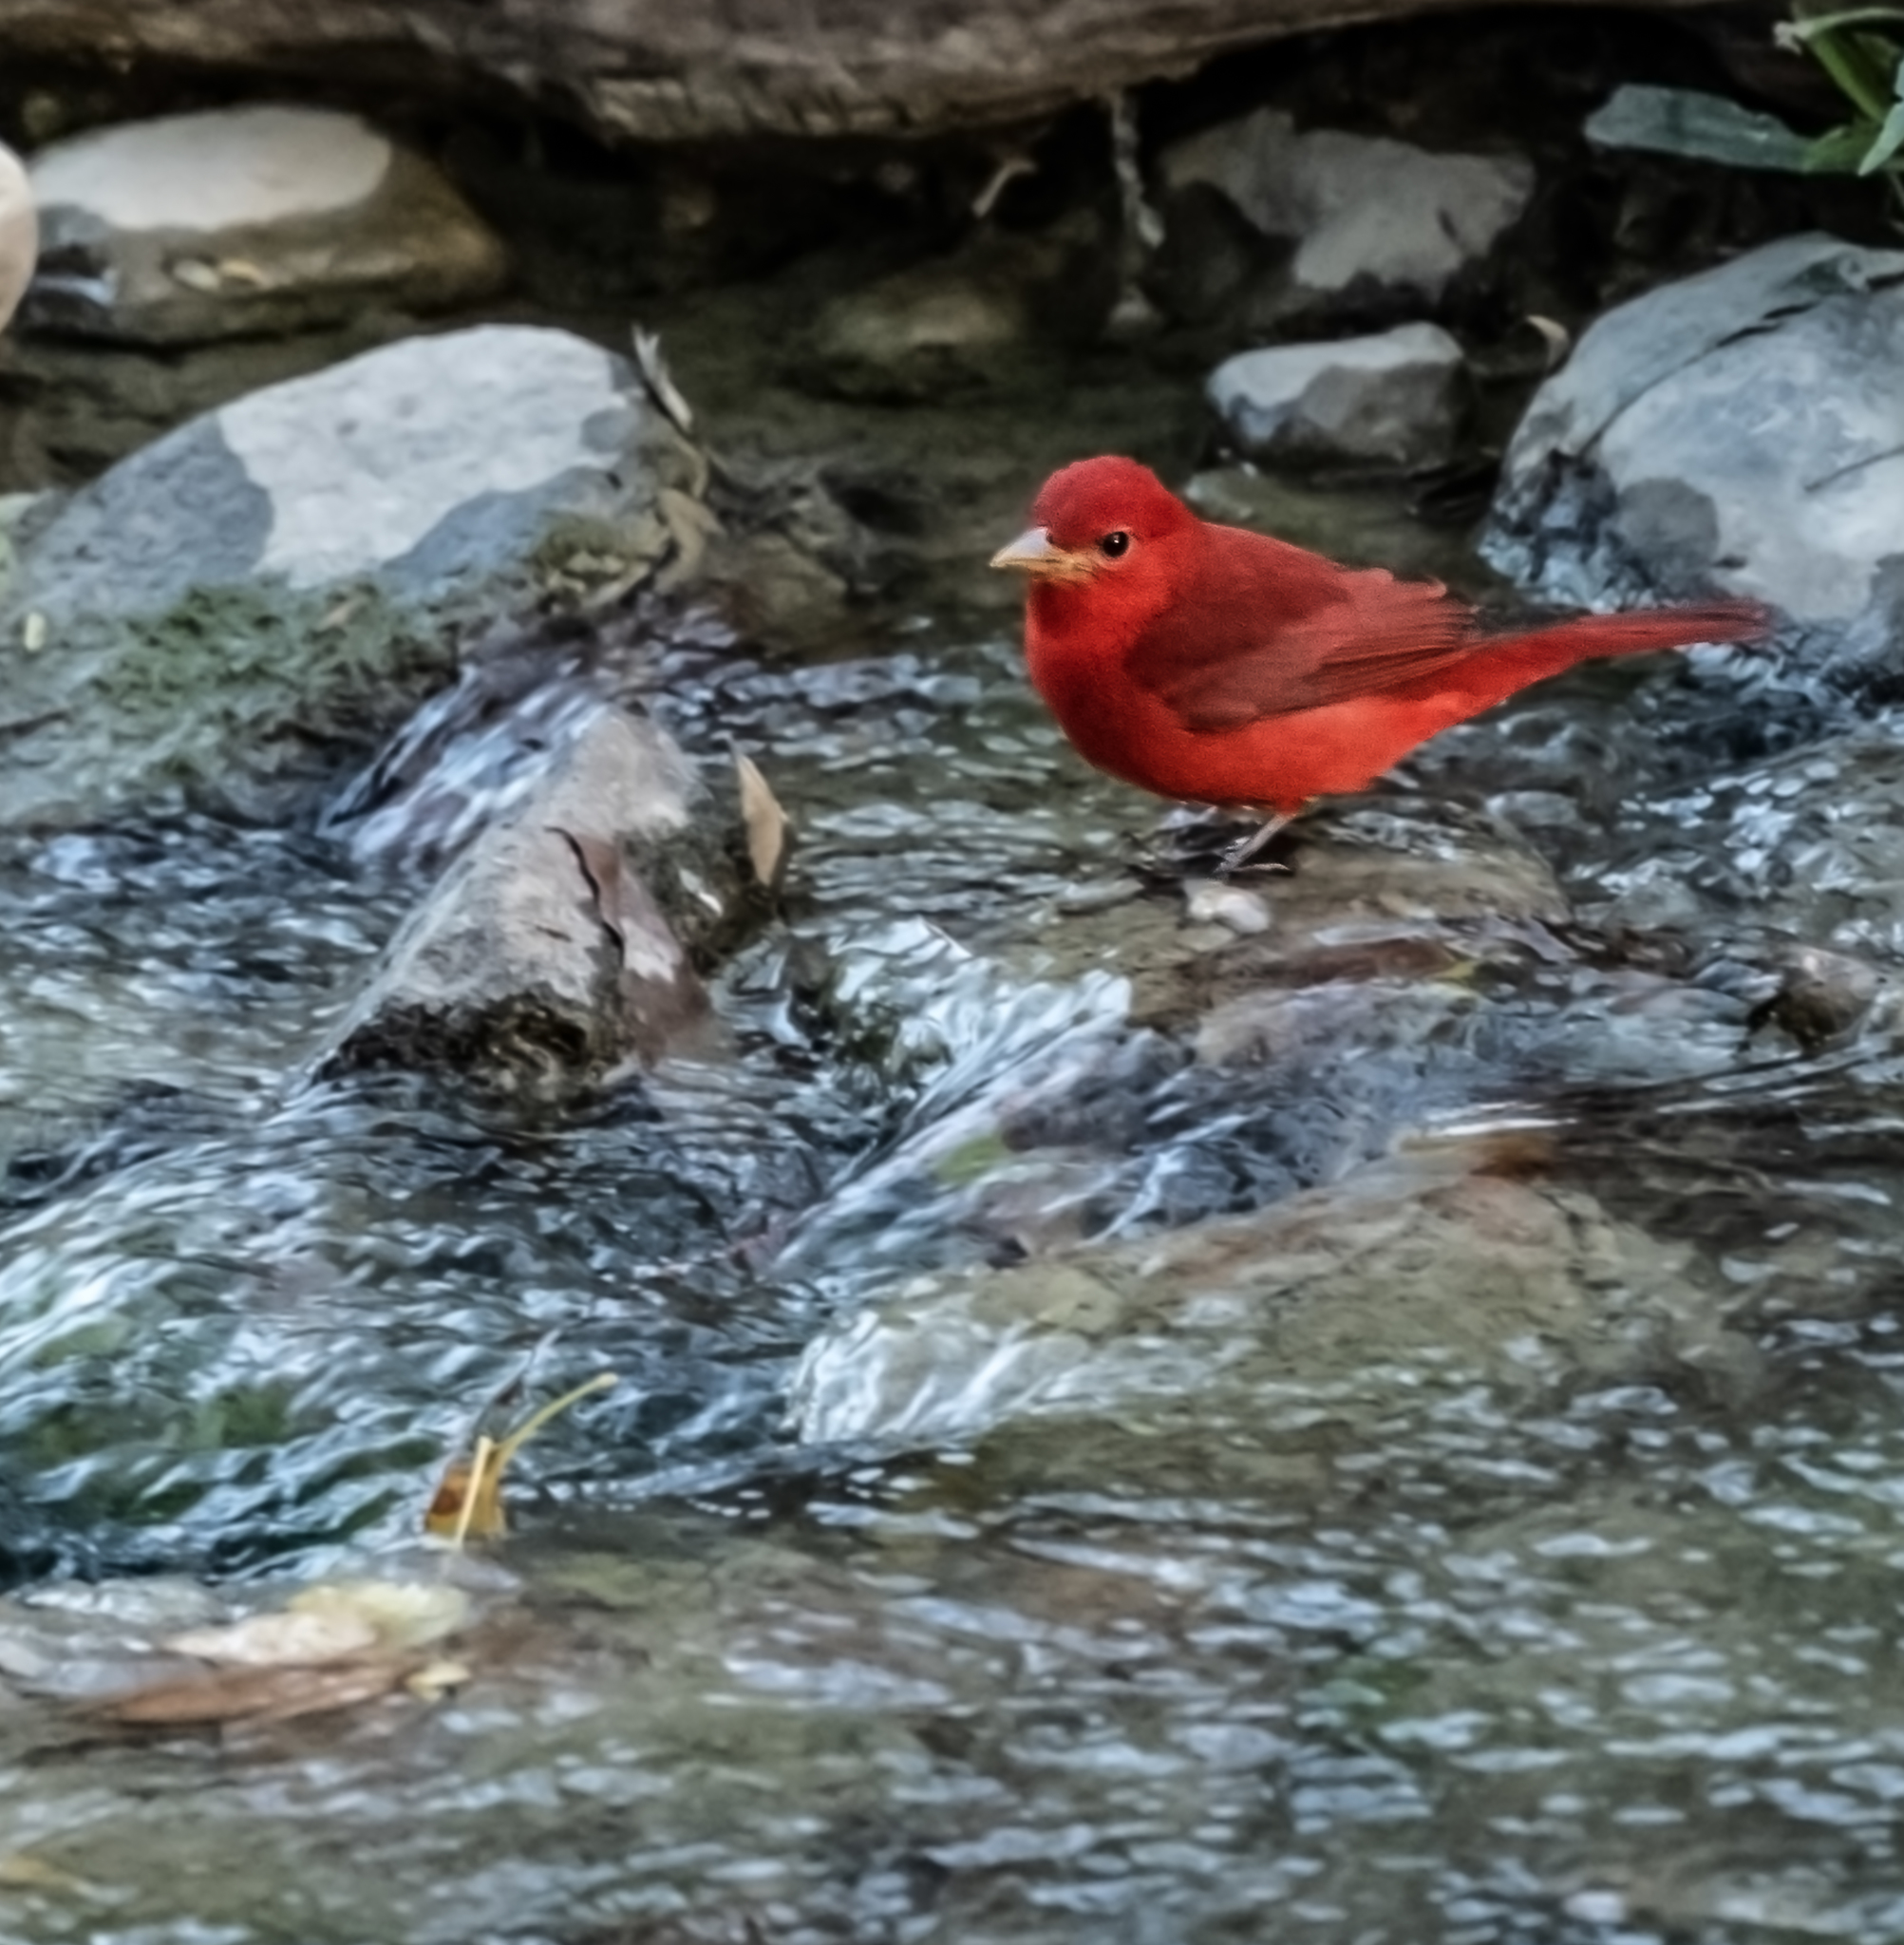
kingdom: Animalia
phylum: Chordata
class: Aves
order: Passeriformes
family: Cardinalidae
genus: Piranga
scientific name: Piranga rubra
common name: Summer tanager
